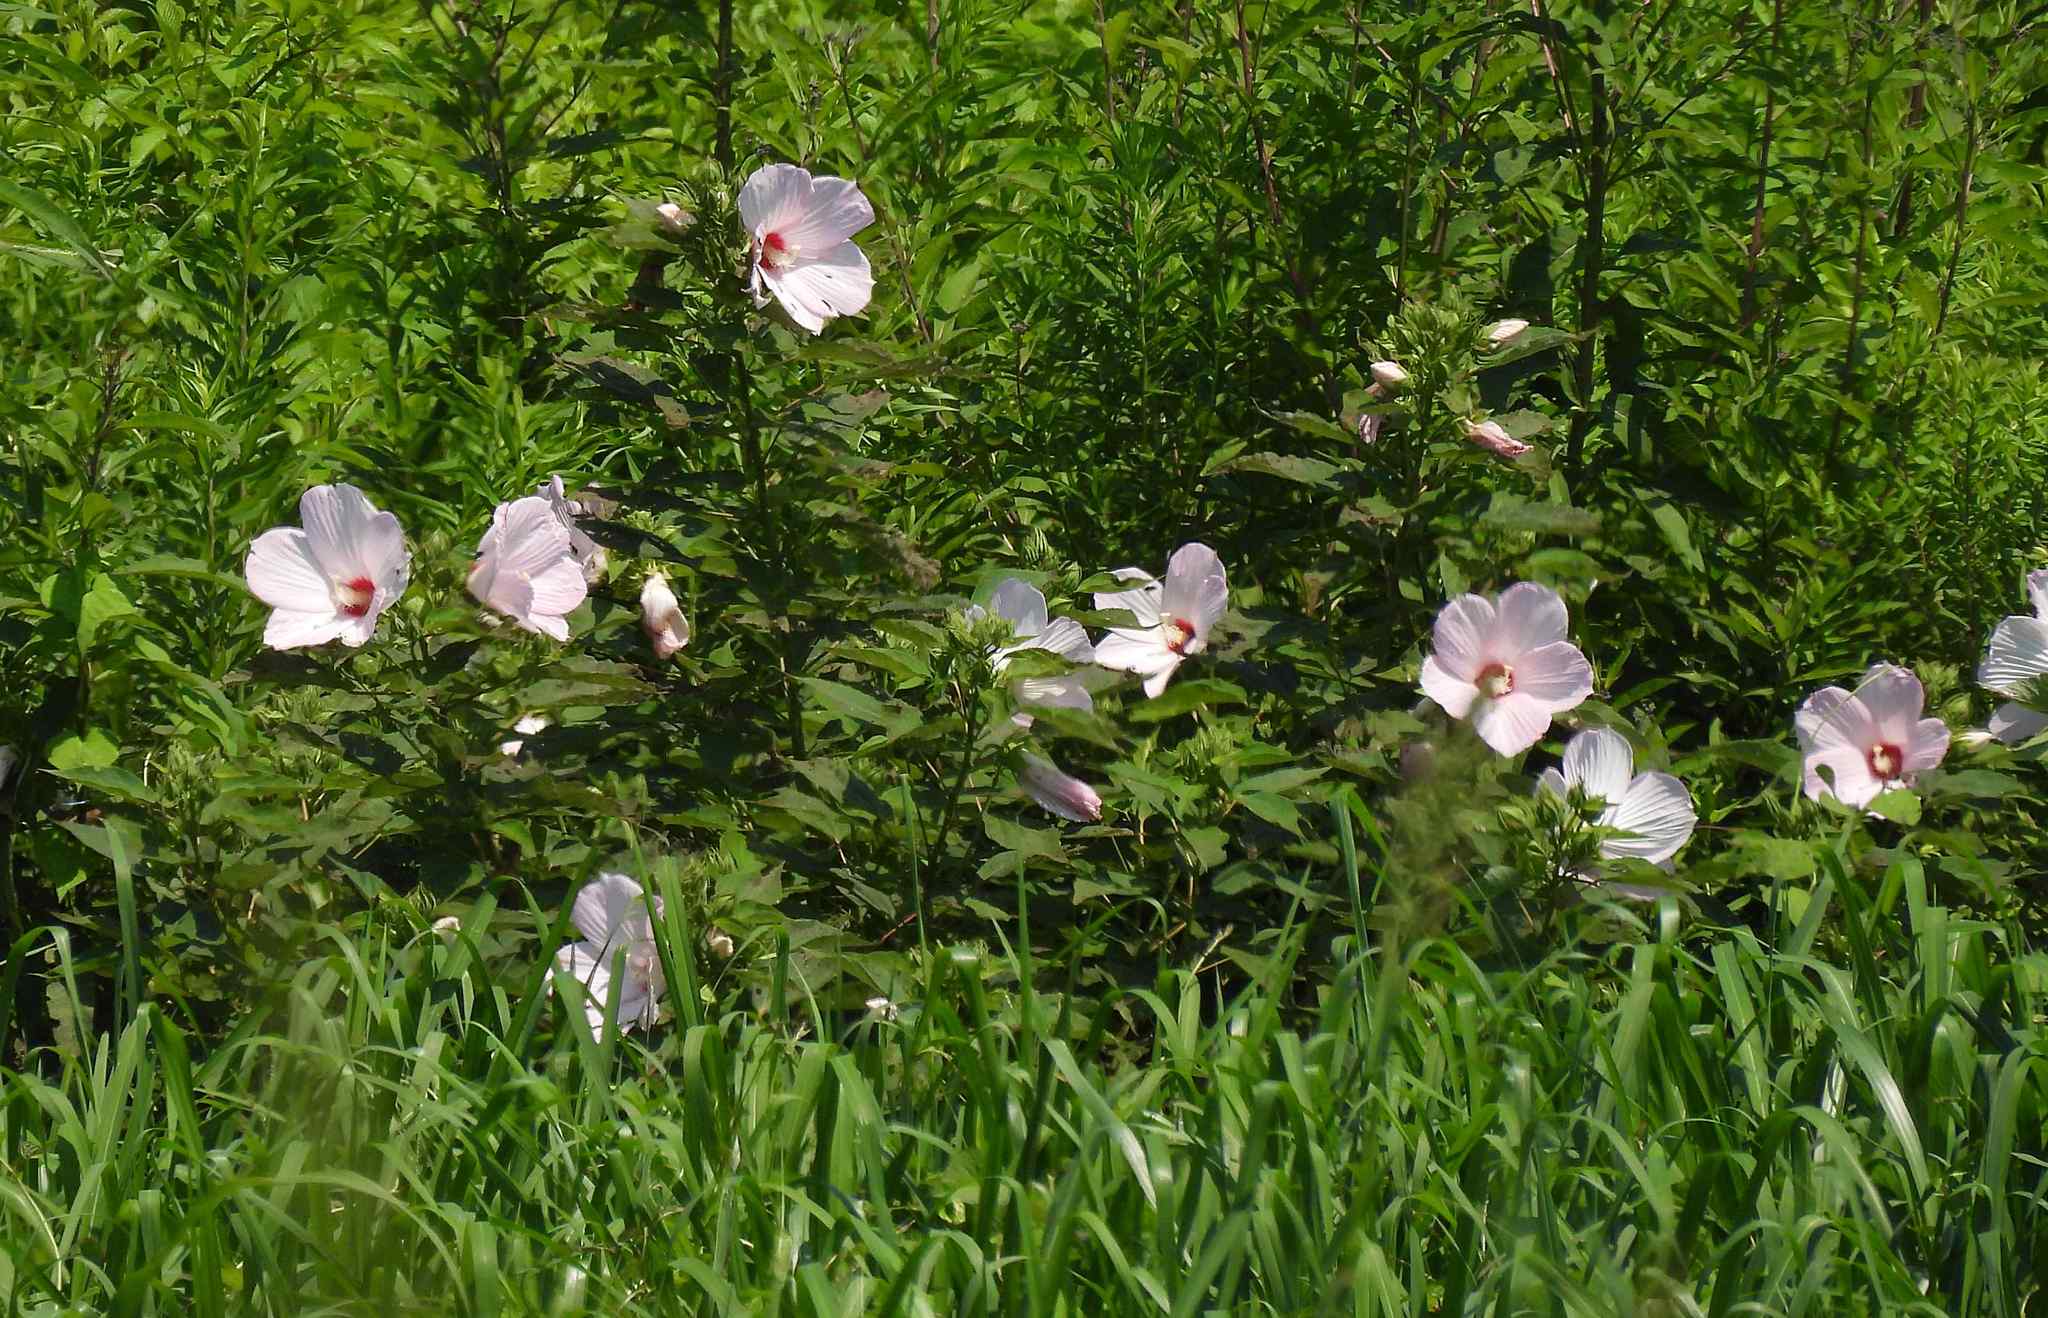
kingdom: Plantae
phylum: Tracheophyta
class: Magnoliopsida
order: Malvales
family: Malvaceae
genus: Hibiscus
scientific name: Hibiscus moscheutos
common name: Common rose-mallow
